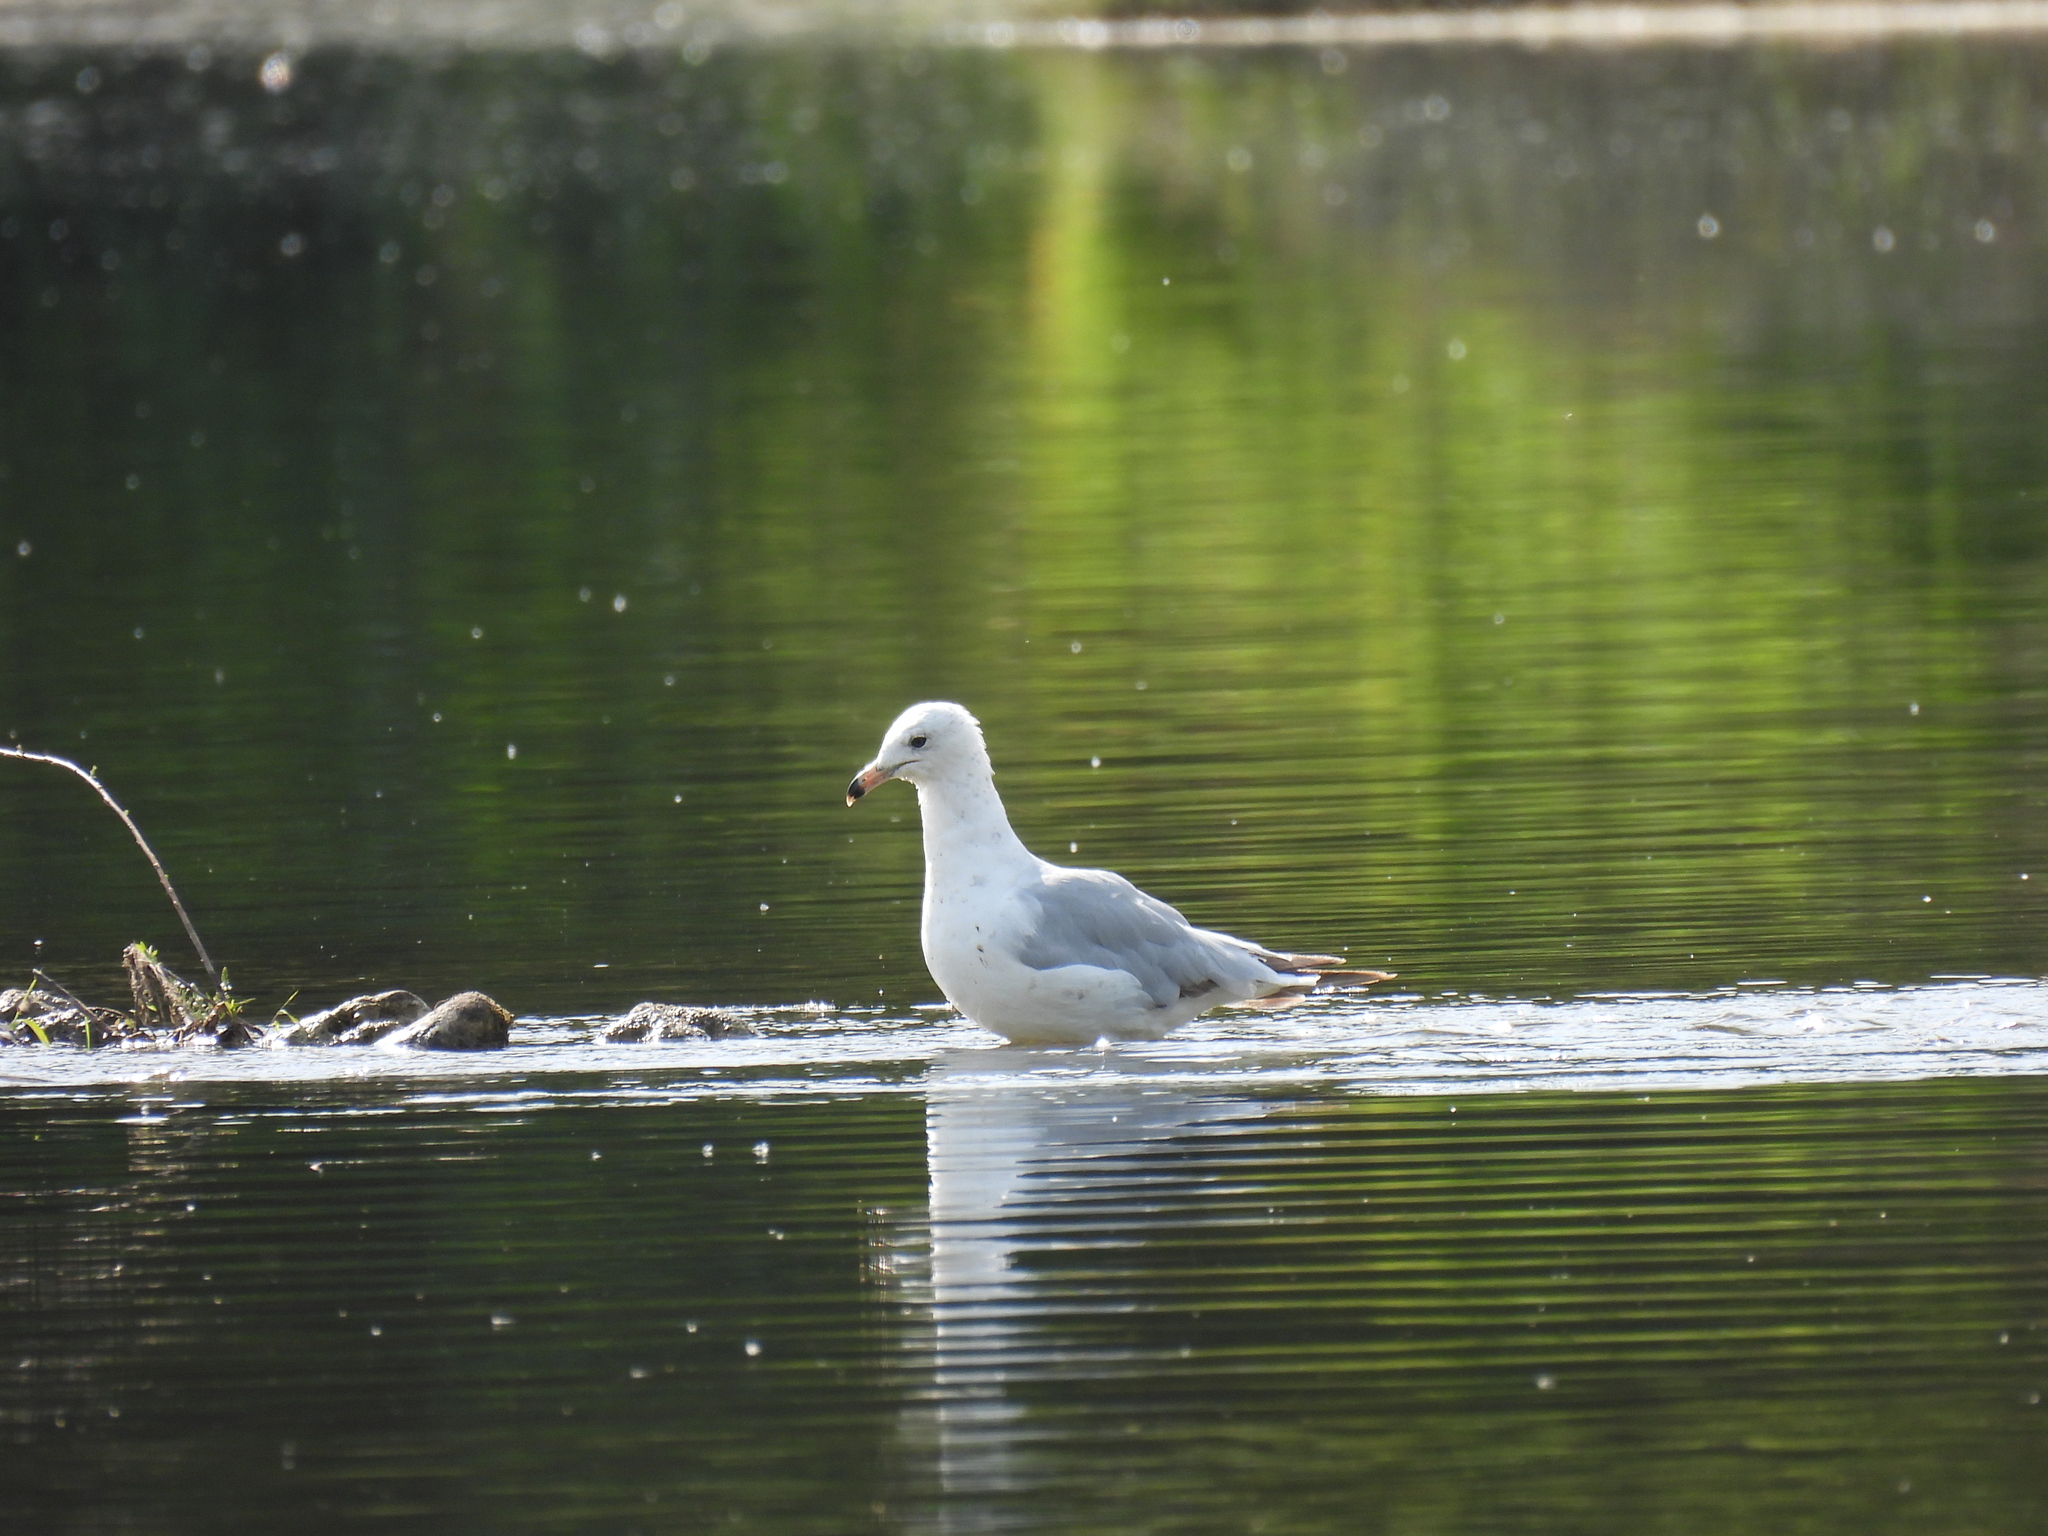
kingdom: Animalia
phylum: Chordata
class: Aves
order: Charadriiformes
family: Laridae
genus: Larus
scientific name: Larus delawarensis
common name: Ring-billed gull
